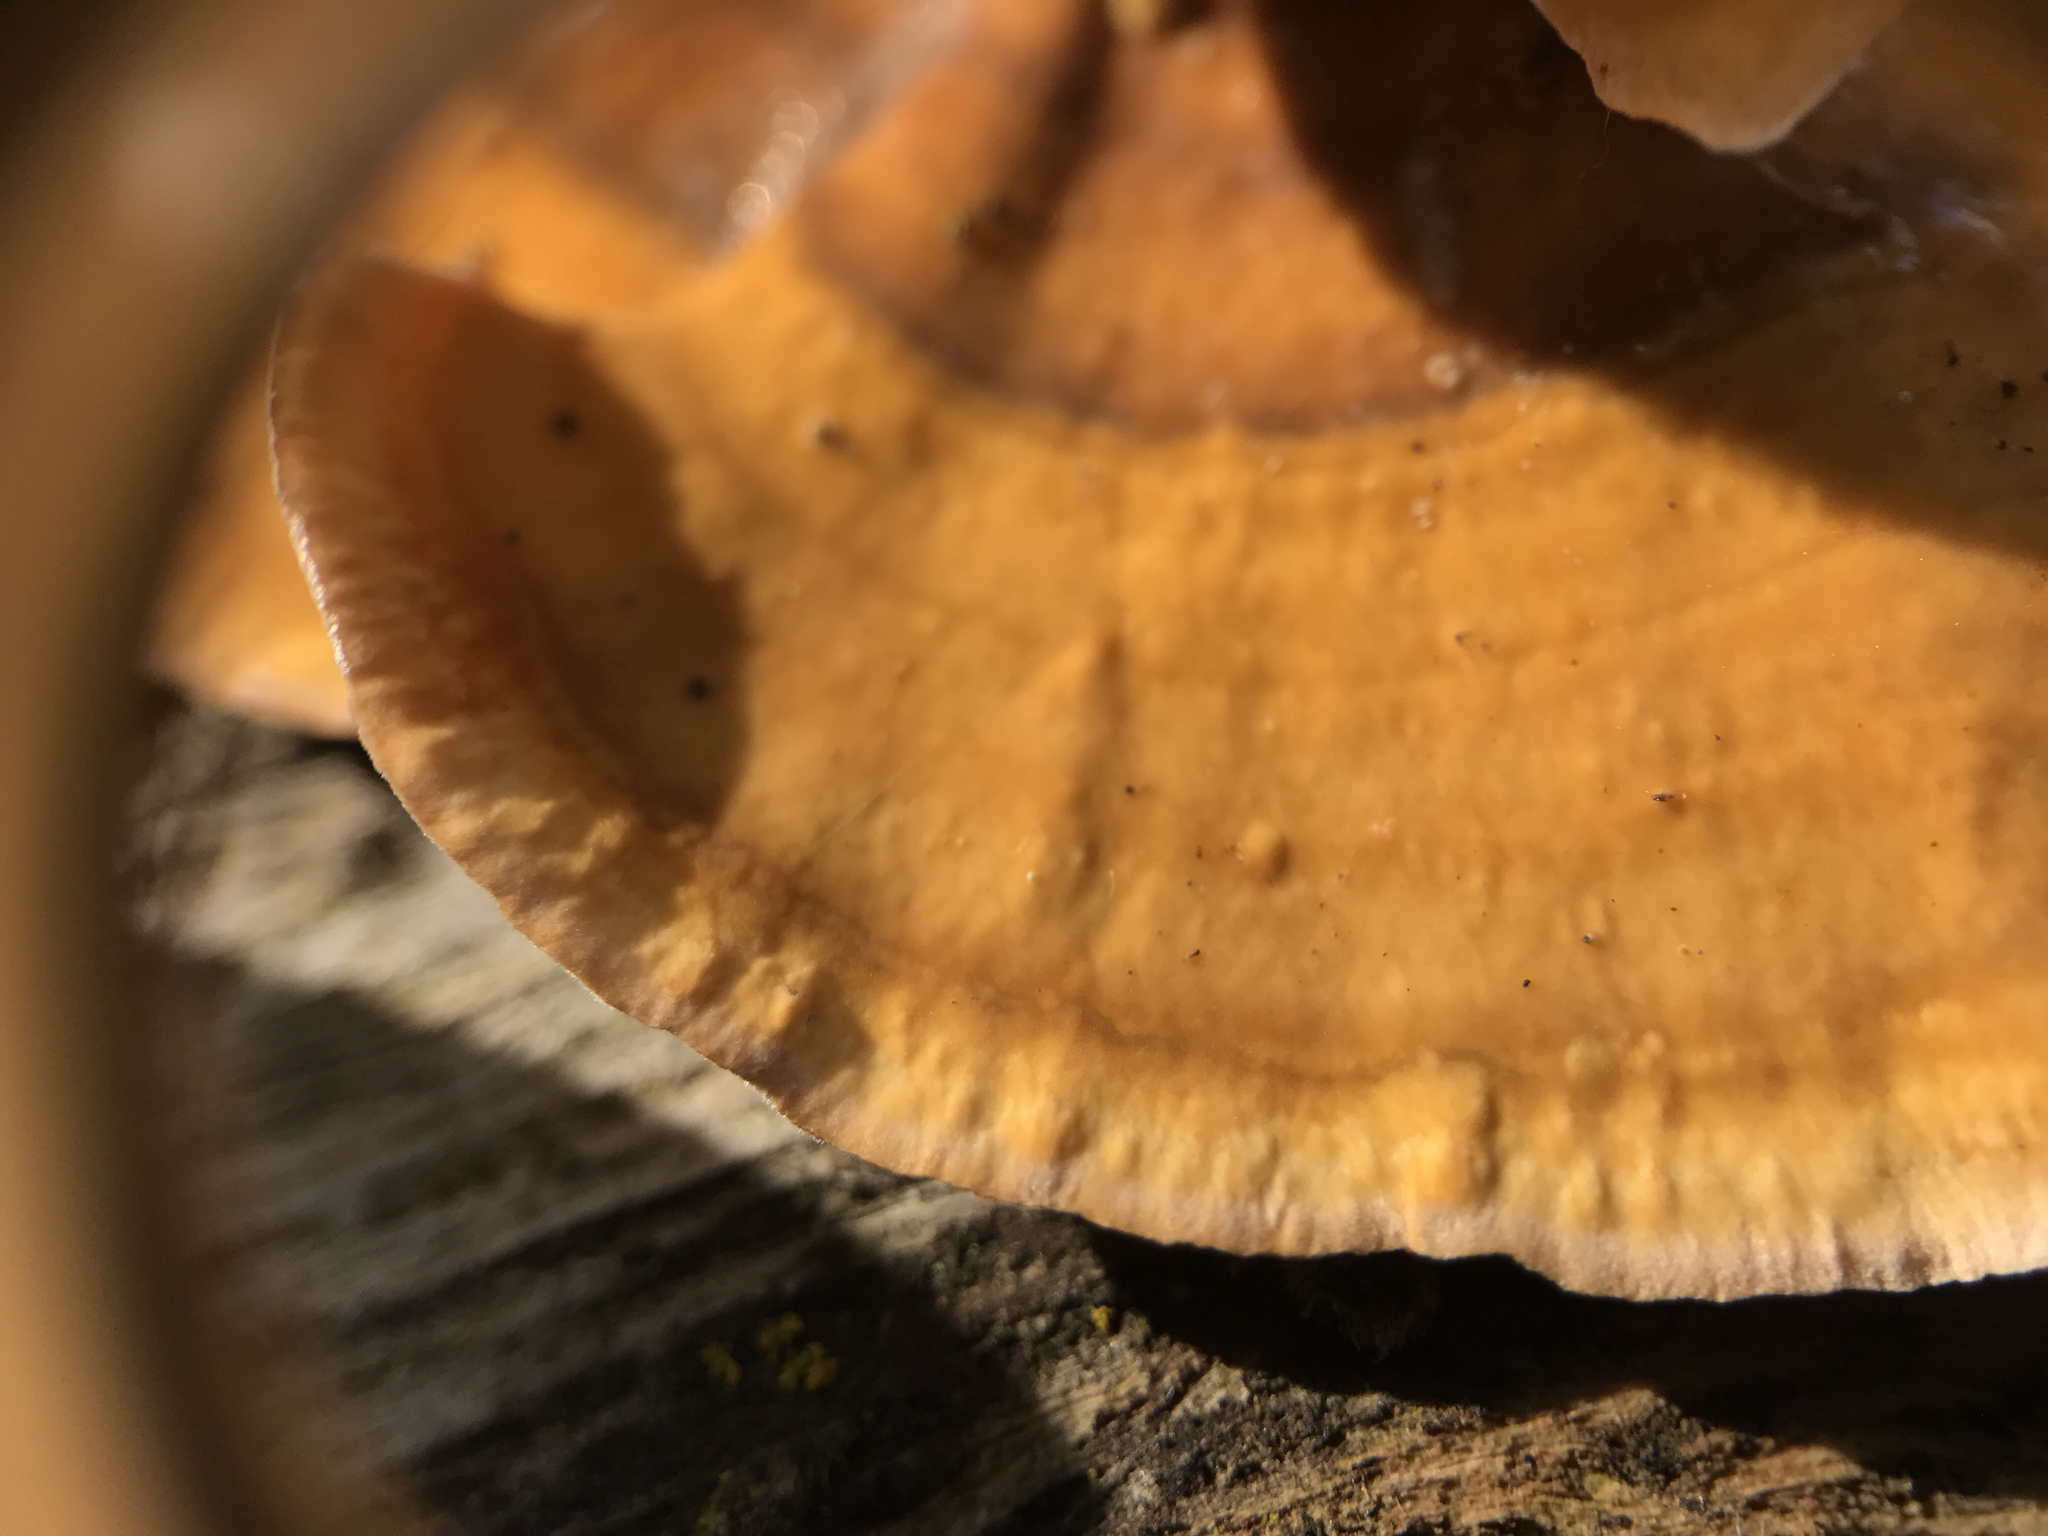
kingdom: Fungi
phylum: Basidiomycota
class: Agaricomycetes
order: Russulales
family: Stereaceae
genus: Stereum
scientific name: Stereum hirsutum
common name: Hairy curtain crust
